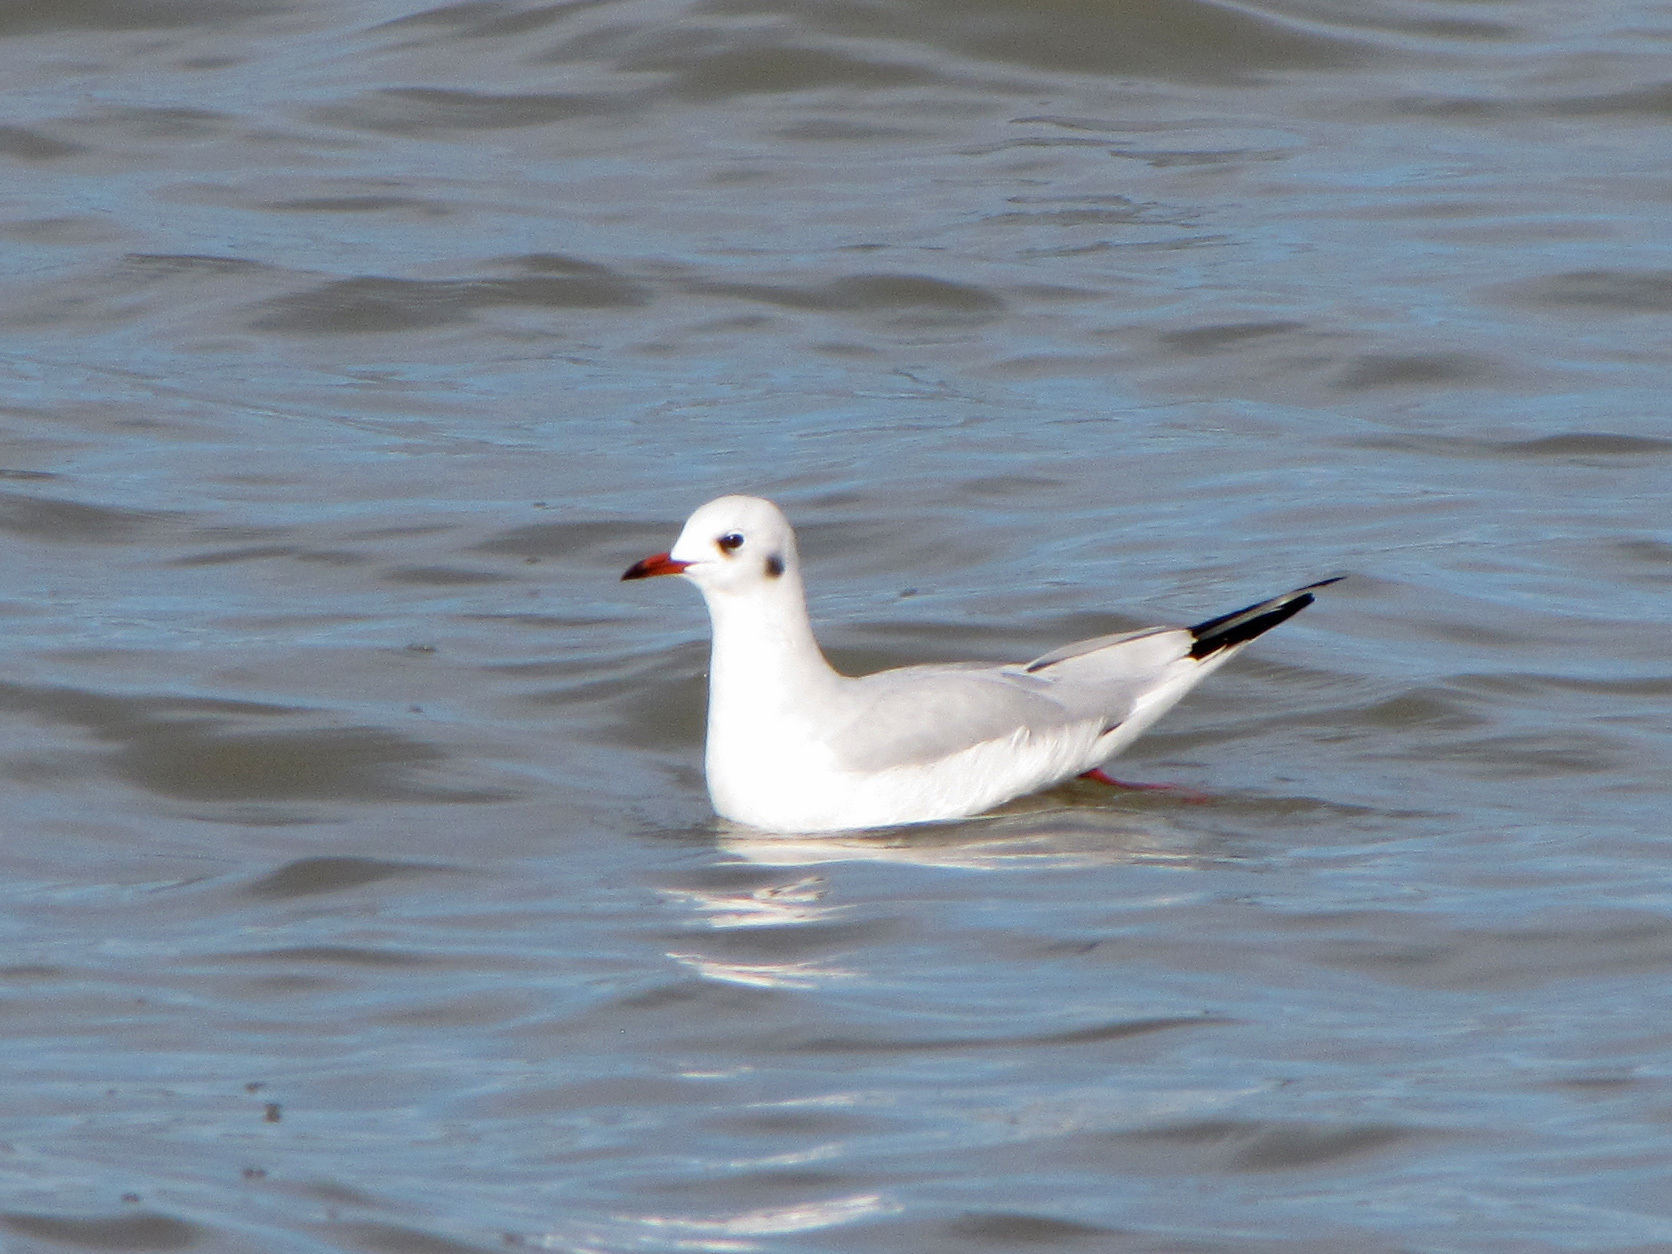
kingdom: Animalia
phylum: Chordata
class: Aves
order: Charadriiformes
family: Laridae
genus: Chroicocephalus
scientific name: Chroicocephalus ridibundus
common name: Black-headed gull
